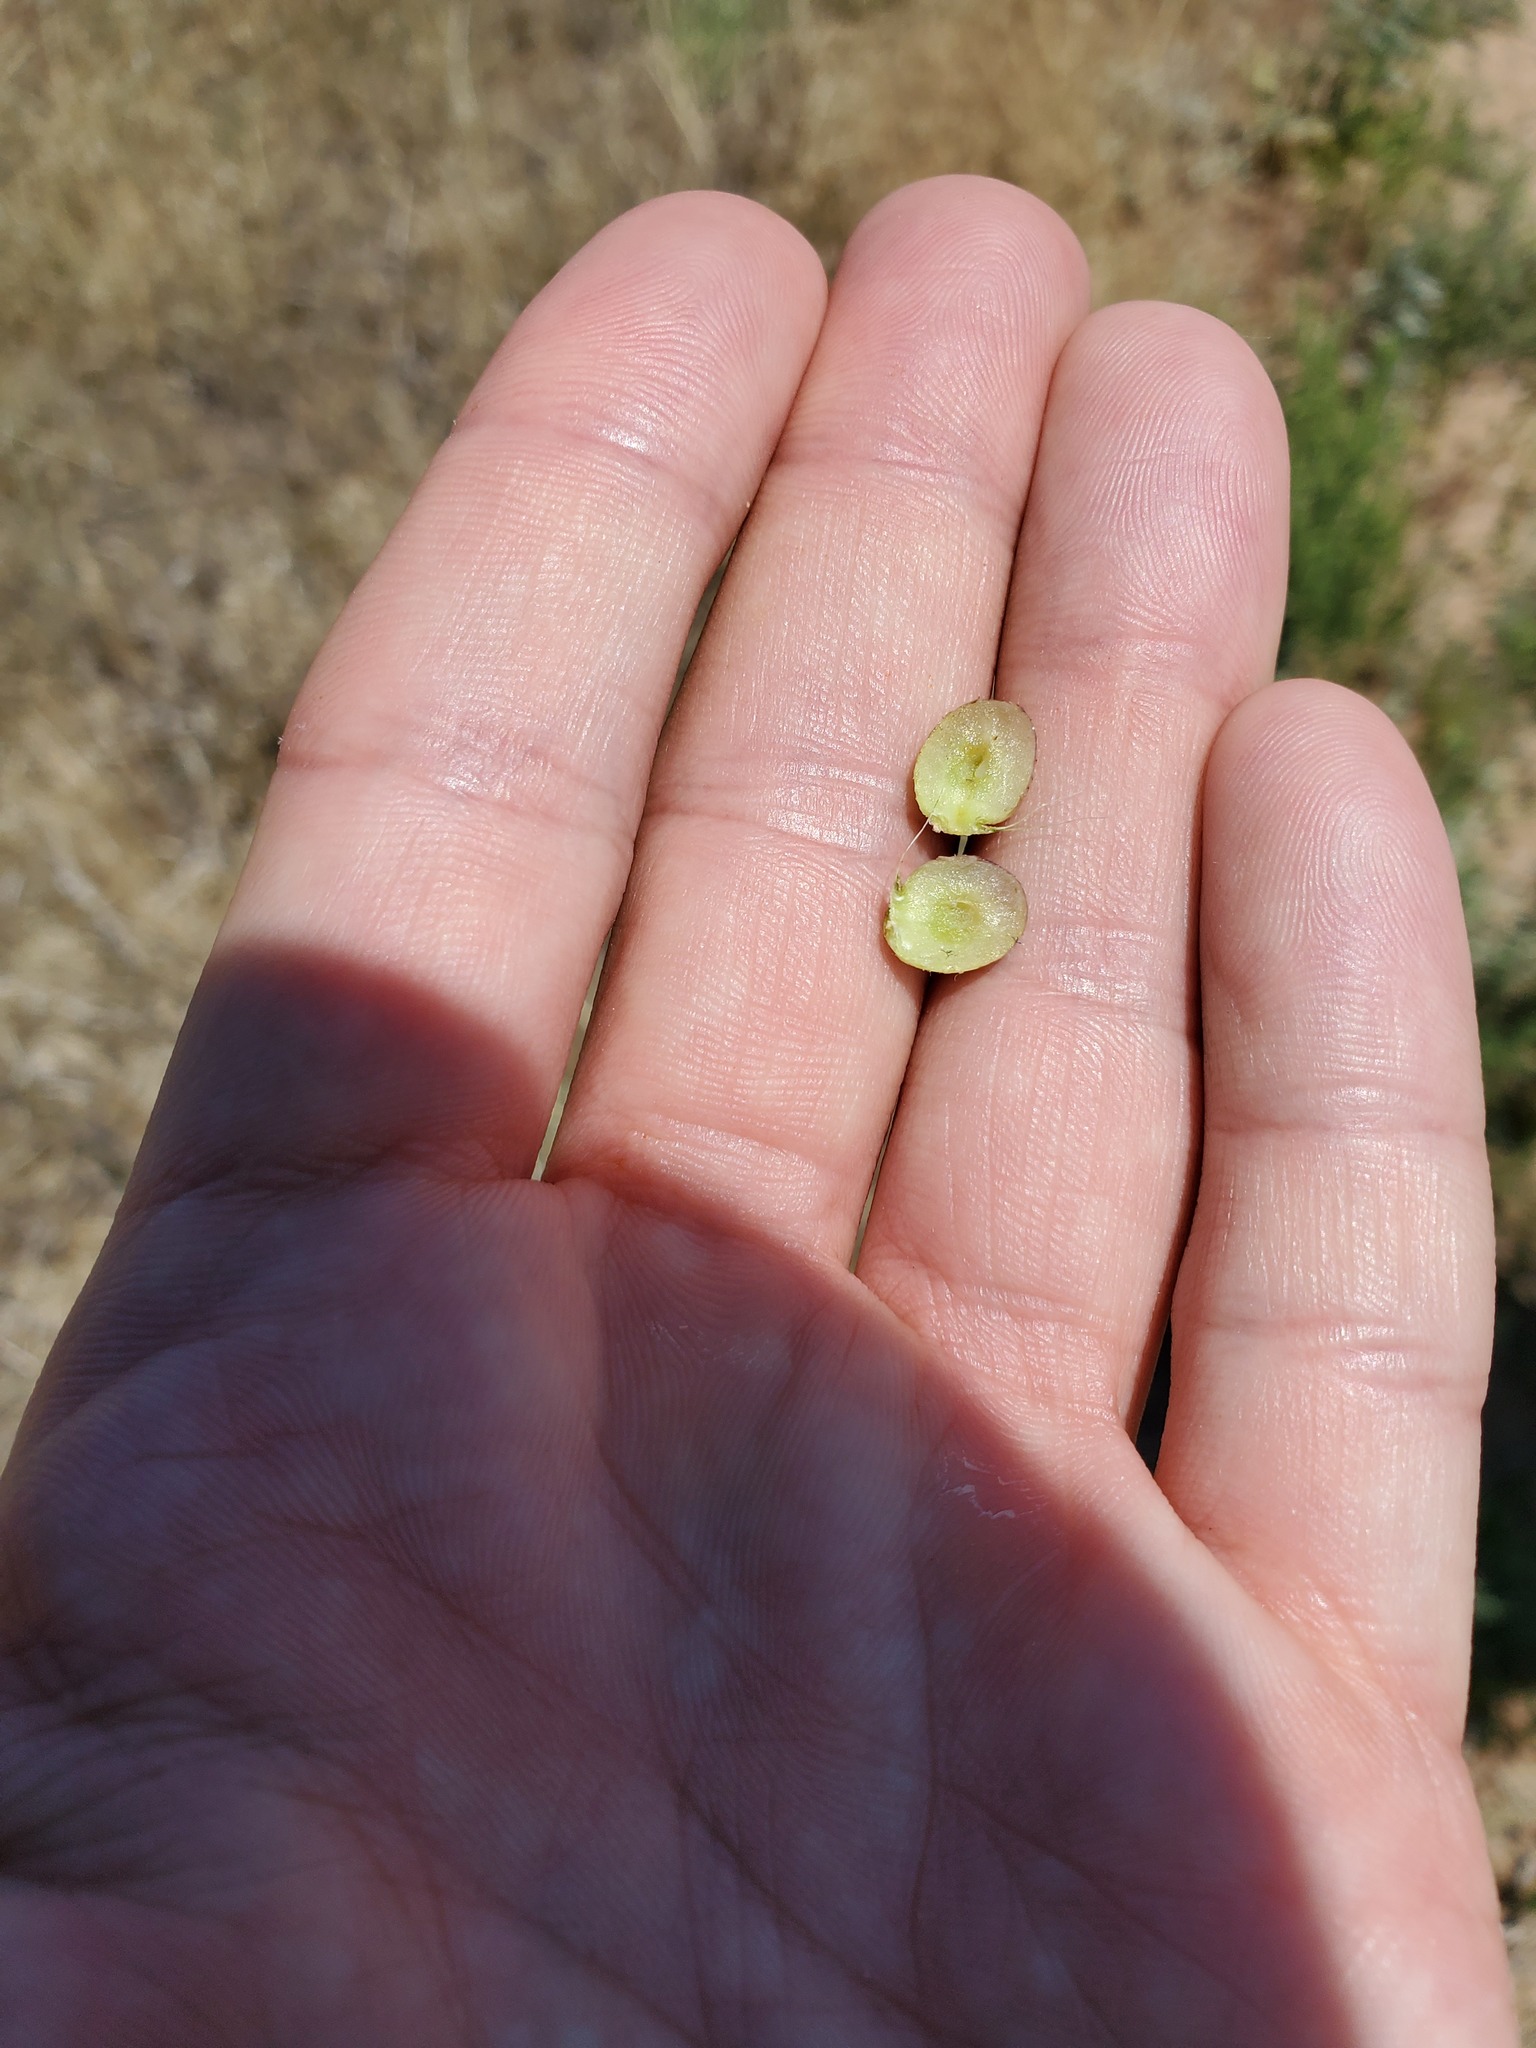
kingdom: Animalia
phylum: Arthropoda
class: Insecta
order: Hymenoptera
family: Cynipidae
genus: Antistrophus
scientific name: Antistrophus
